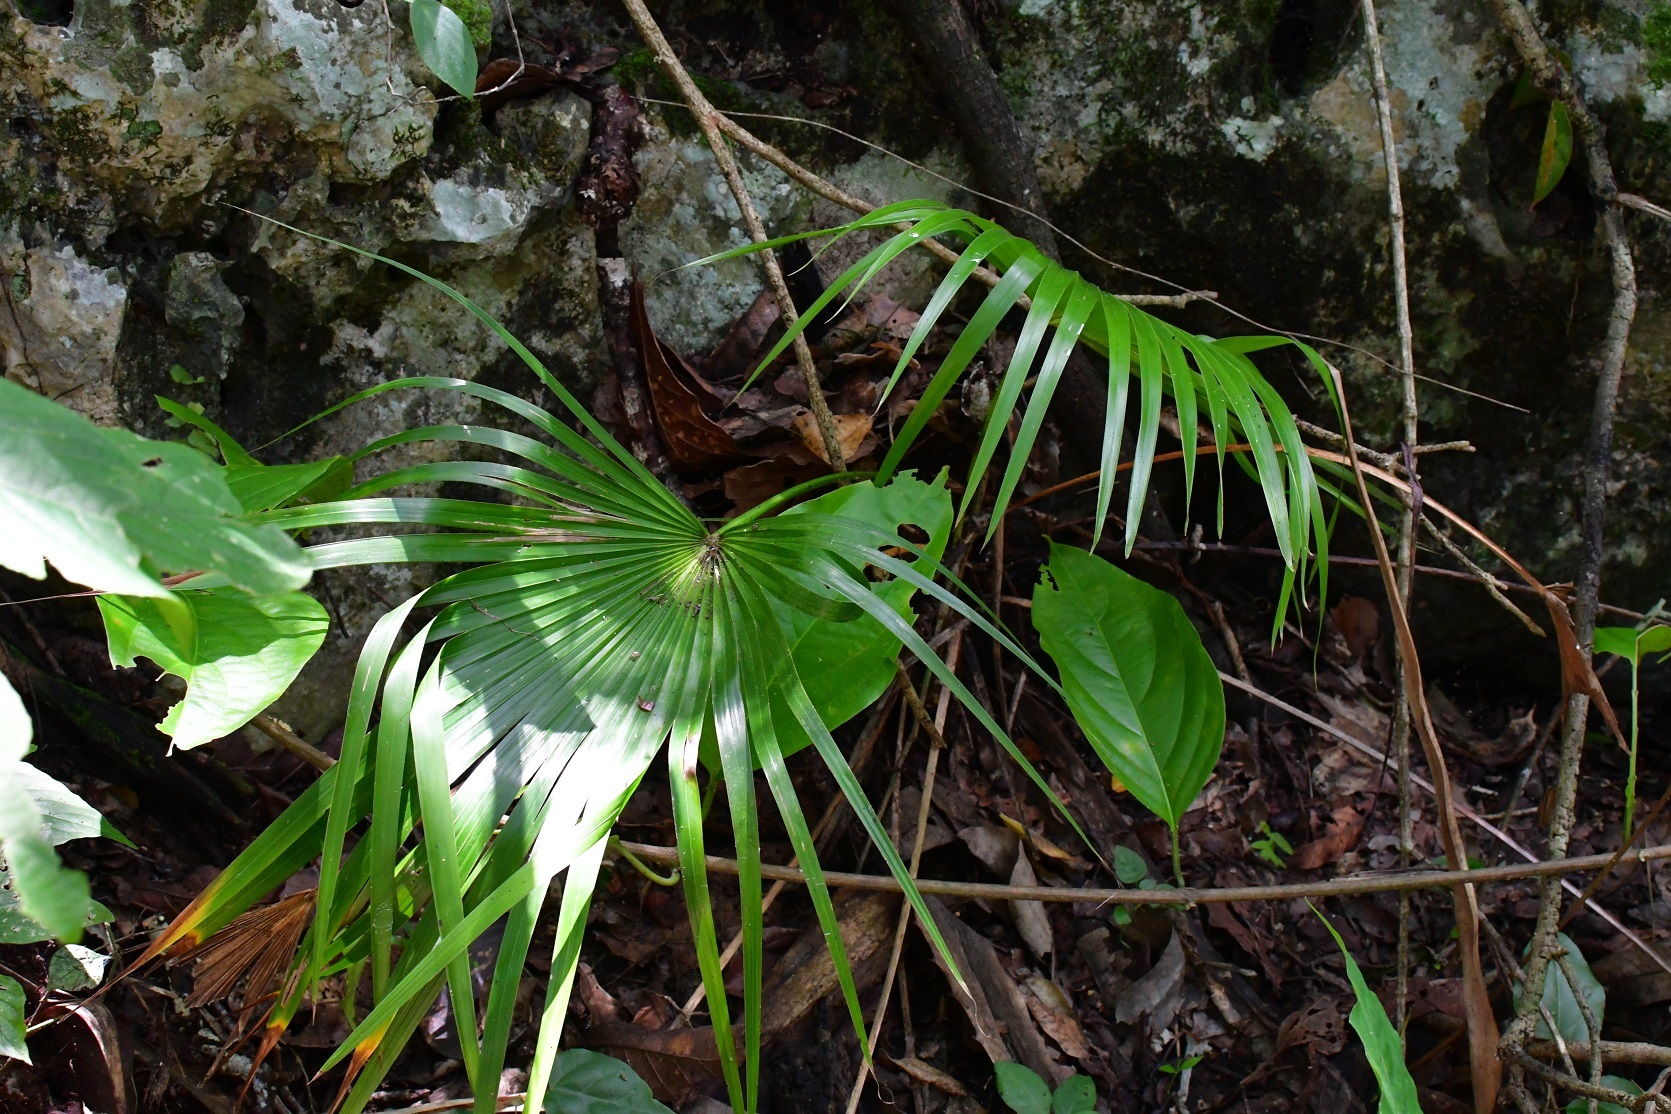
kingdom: Plantae
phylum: Tracheophyta
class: Liliopsida
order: Arecales
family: Arecaceae
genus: Brahea
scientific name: Brahea nitida
